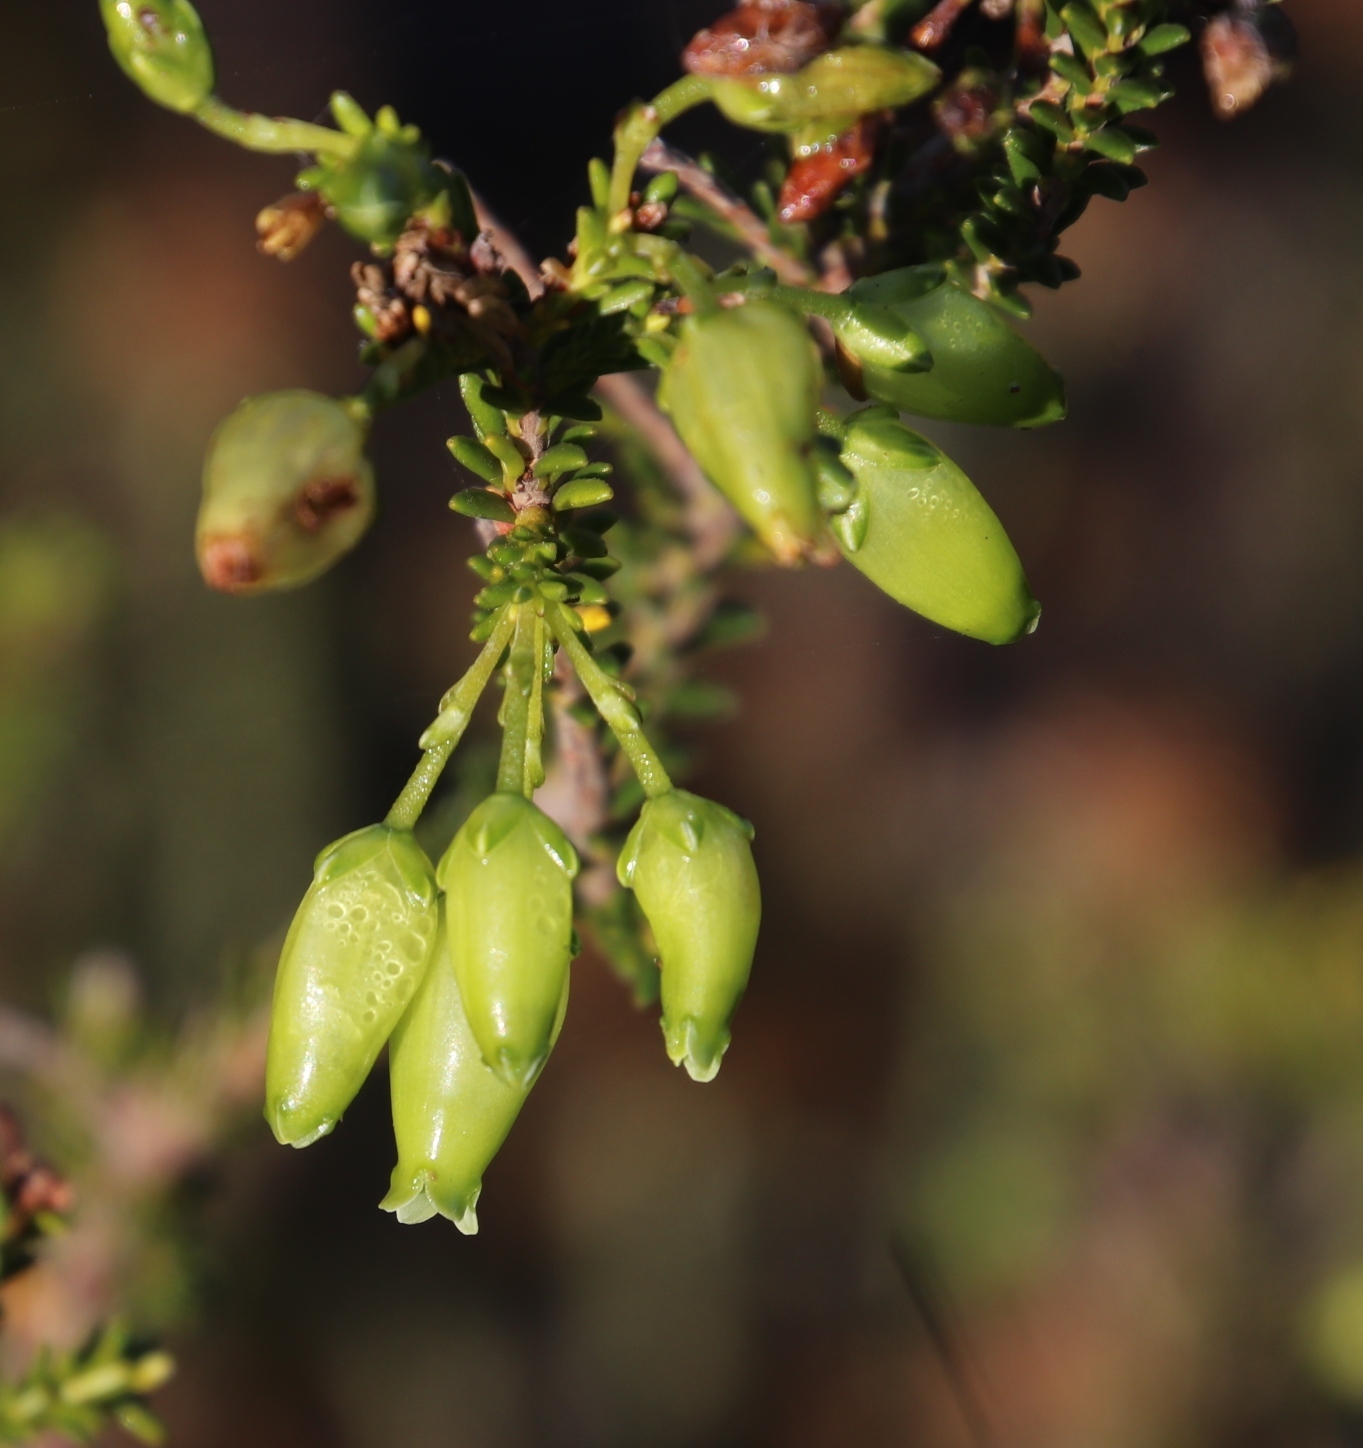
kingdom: Plantae
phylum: Tracheophyta
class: Magnoliopsida
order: Ericales
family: Ericaceae
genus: Erica
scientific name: Erica urna-viridis
